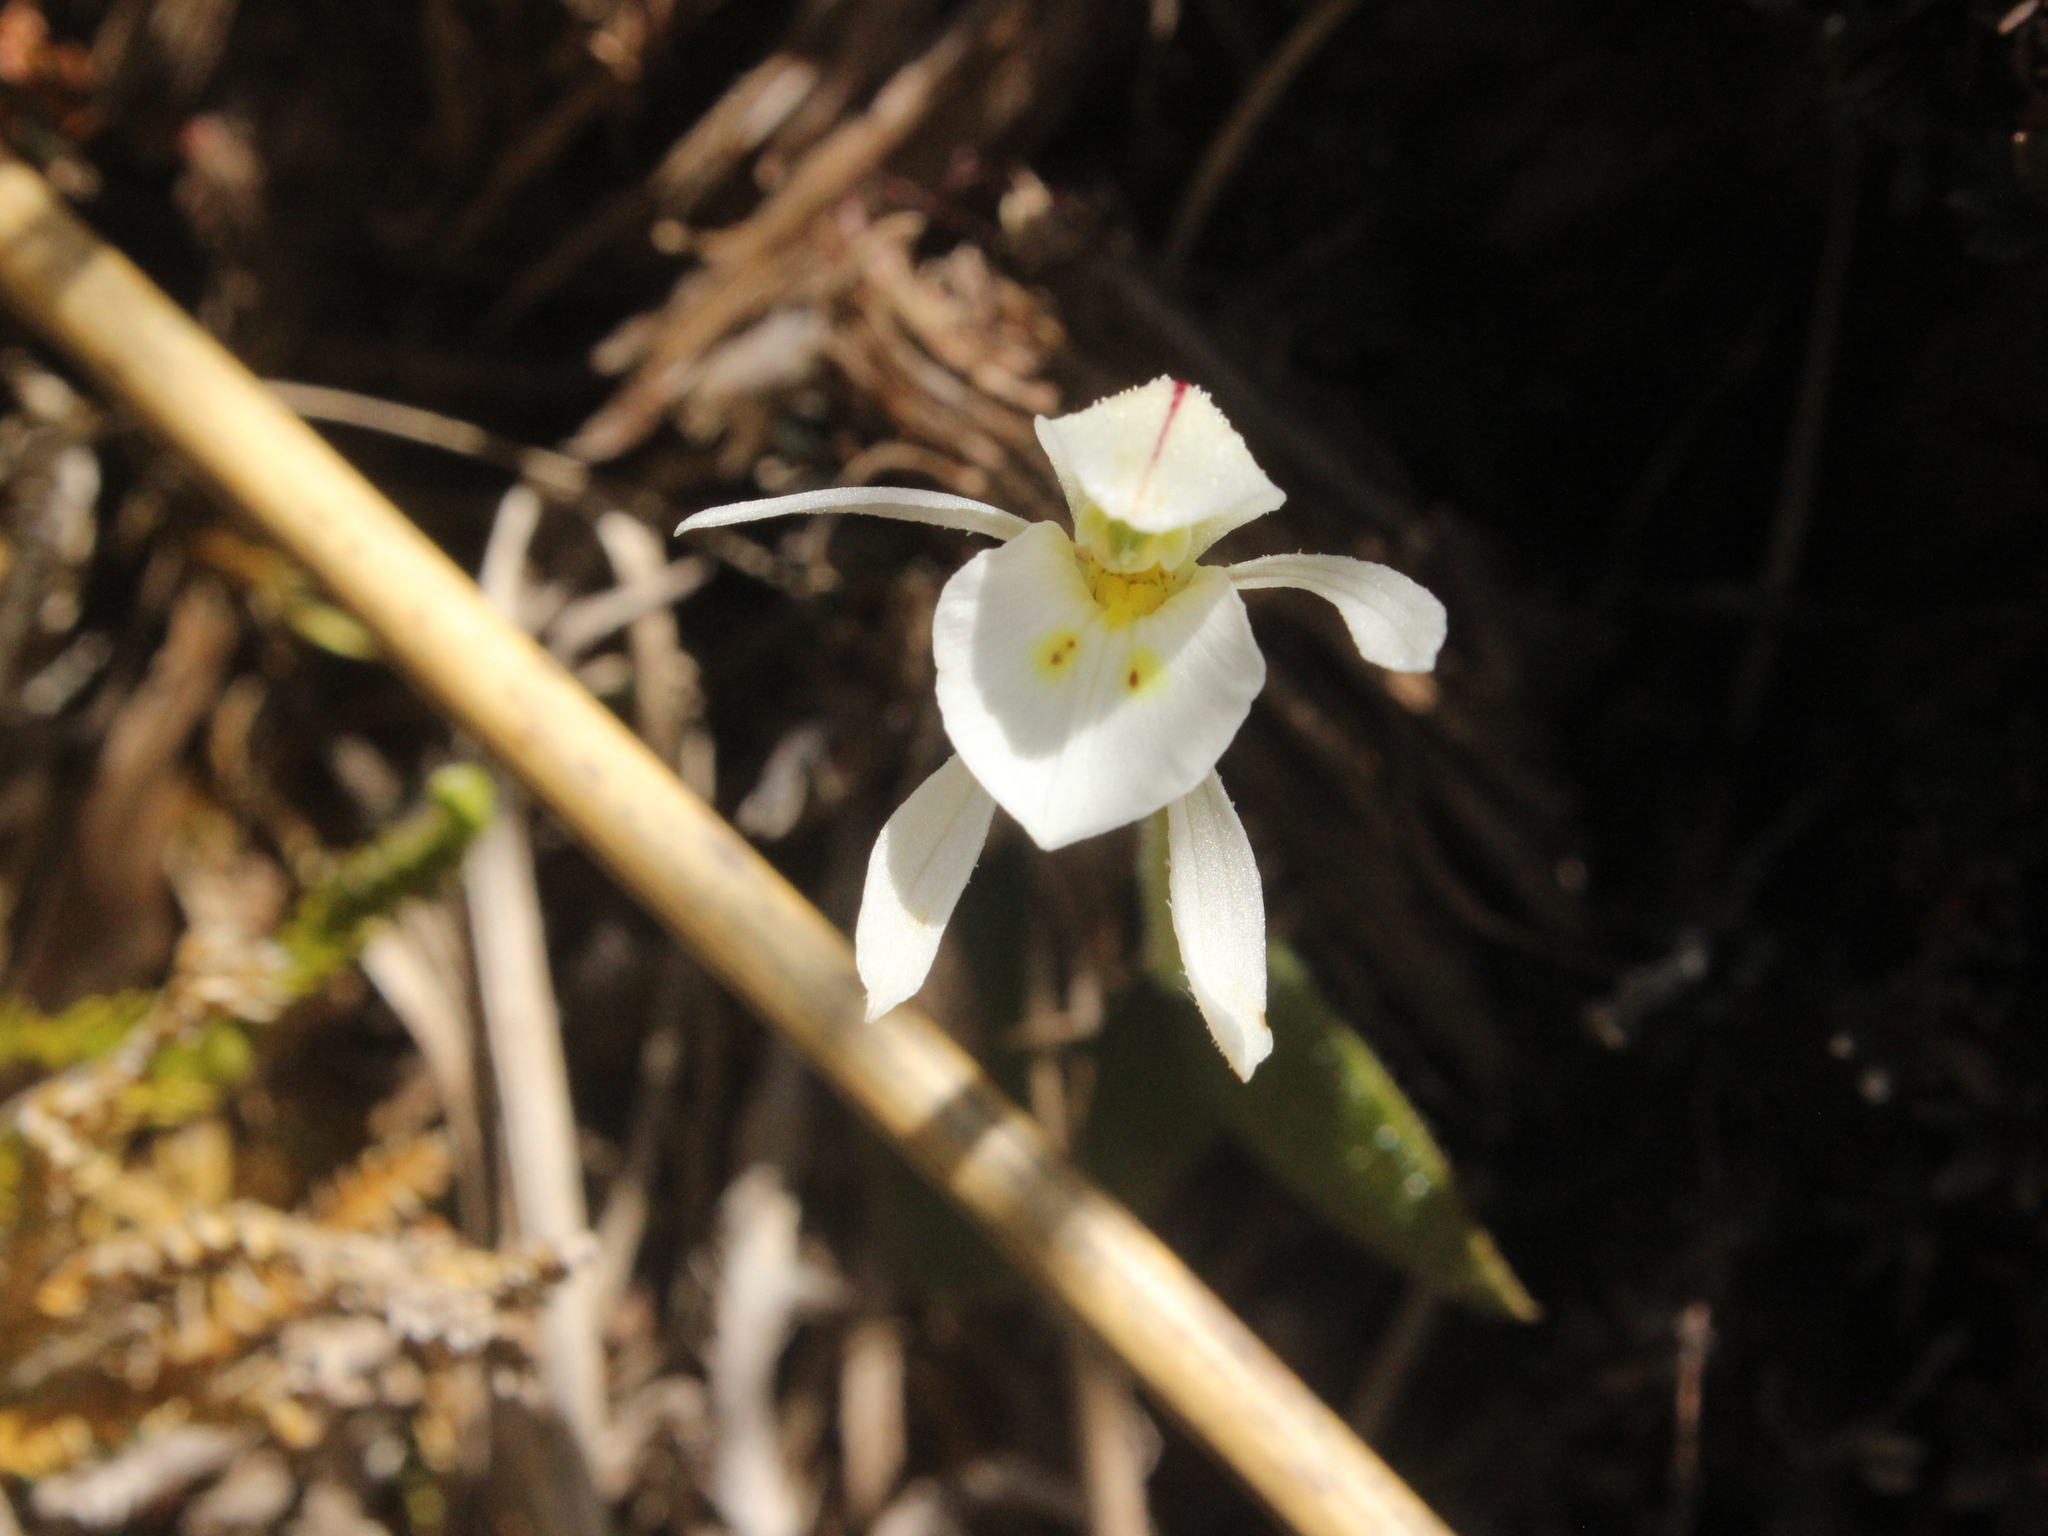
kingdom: Plantae
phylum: Tracheophyta
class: Liliopsida
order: Asparagales
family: Orchidaceae
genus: Aporostylis
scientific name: Aporostylis bifolia
